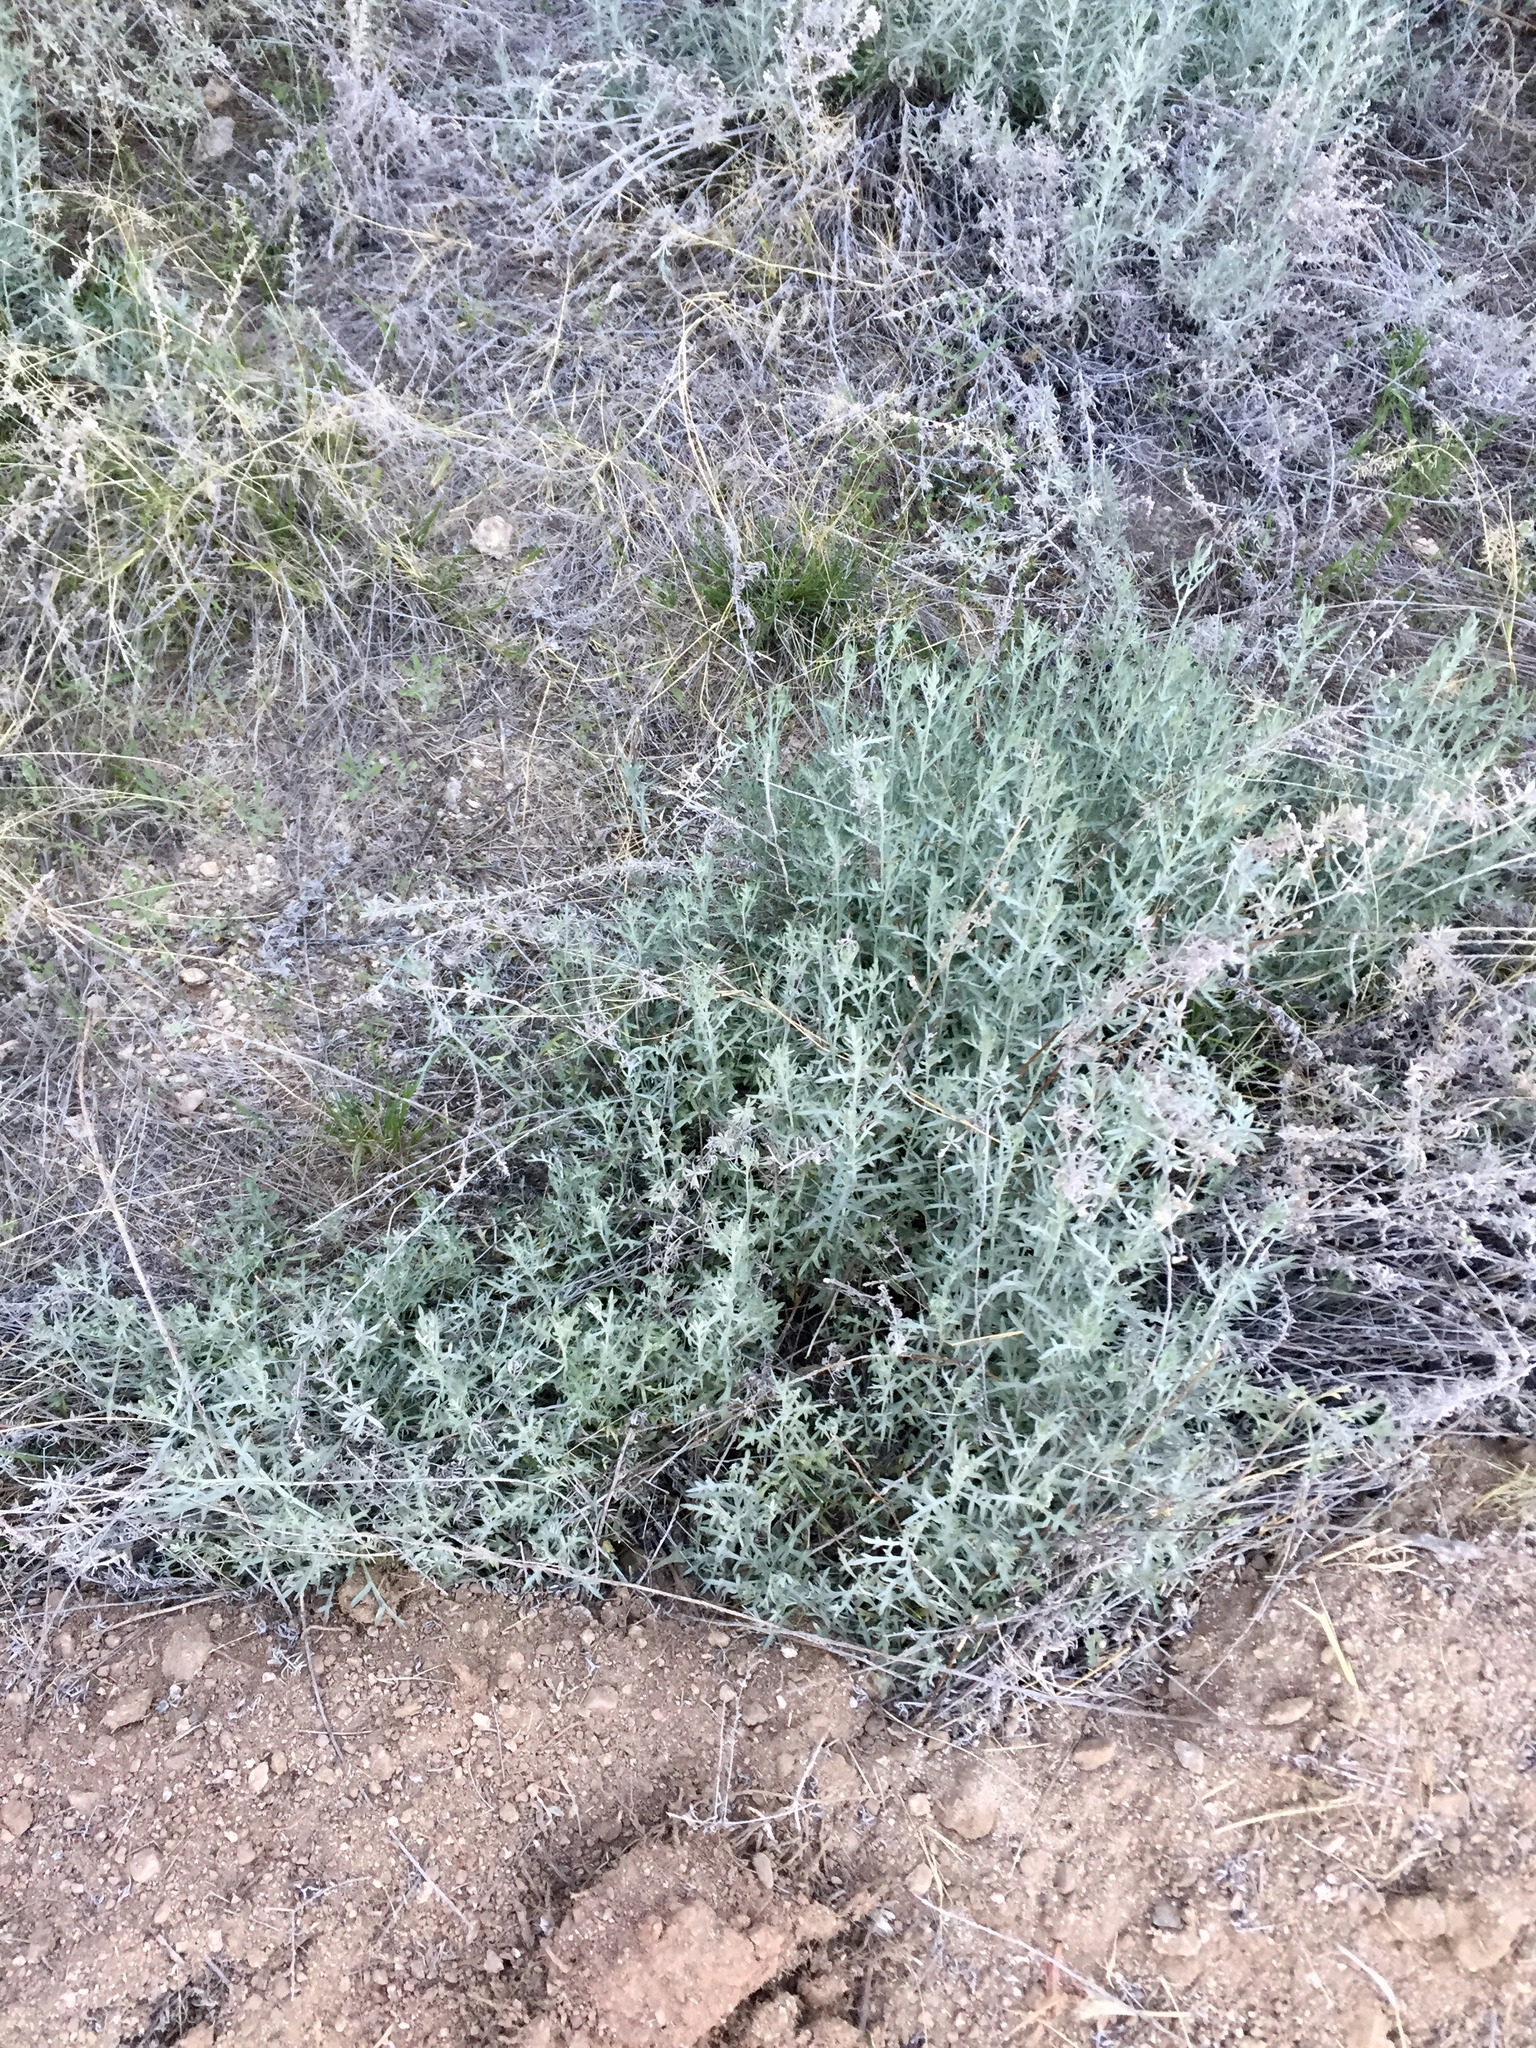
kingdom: Plantae
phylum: Tracheophyta
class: Magnoliopsida
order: Asterales
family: Asteraceae
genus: Artemisia
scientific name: Artemisia ludoviciana
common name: Western mugwort
